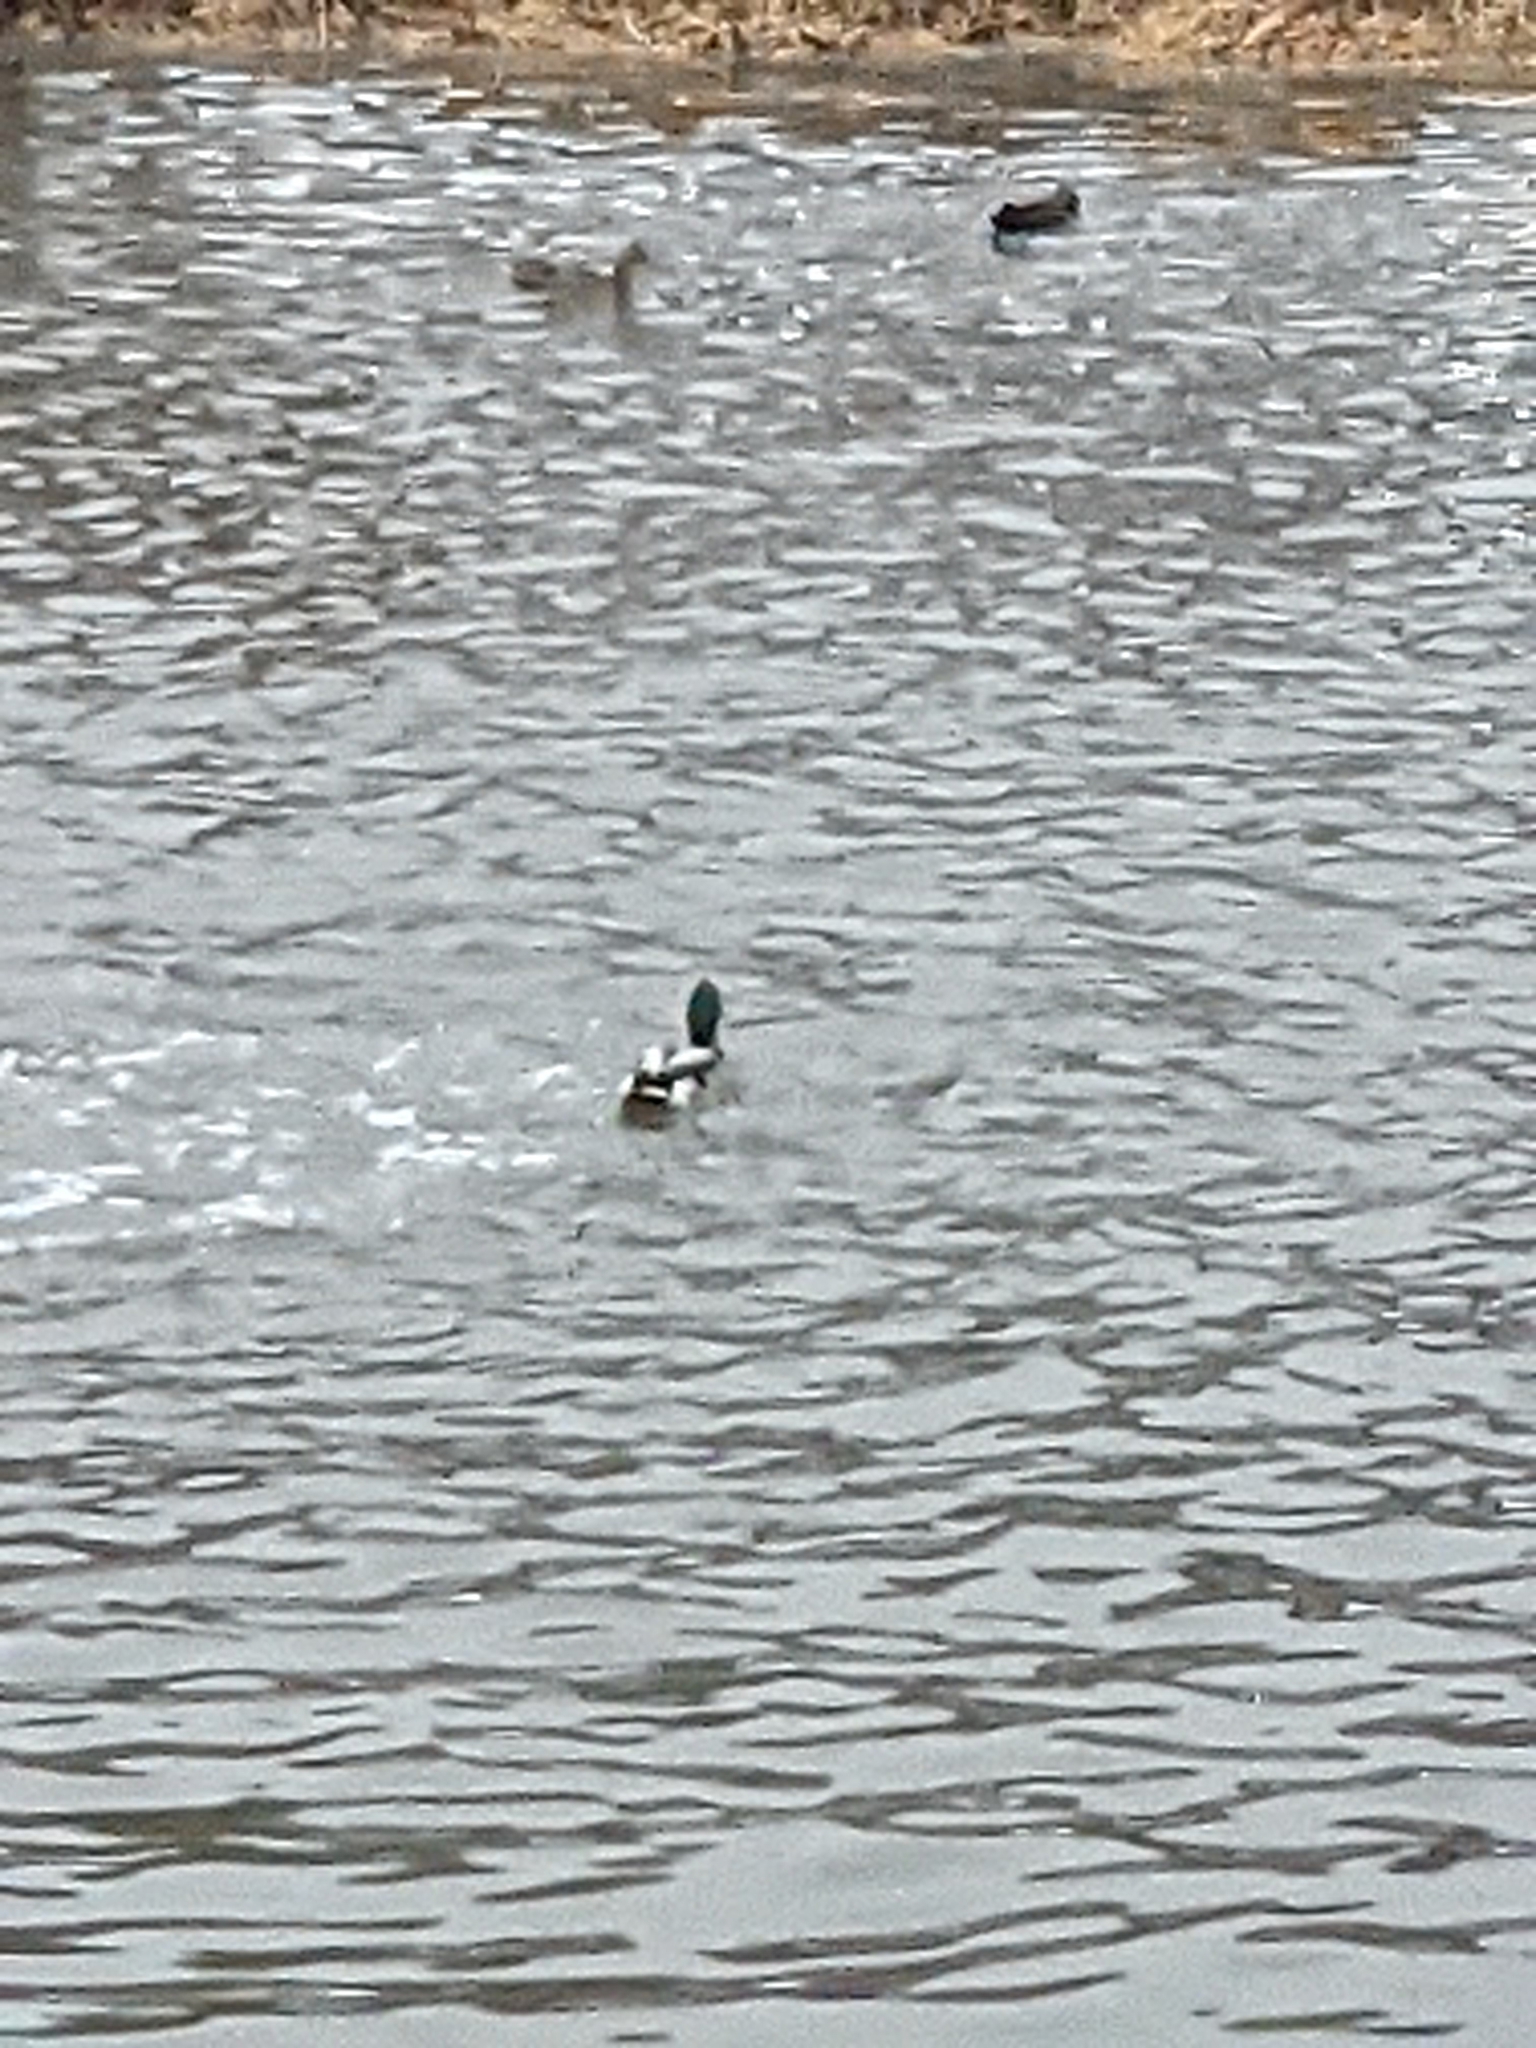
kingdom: Animalia
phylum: Chordata
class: Aves
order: Anseriformes
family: Anatidae
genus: Anas
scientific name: Anas platyrhynchos
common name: Mallard
